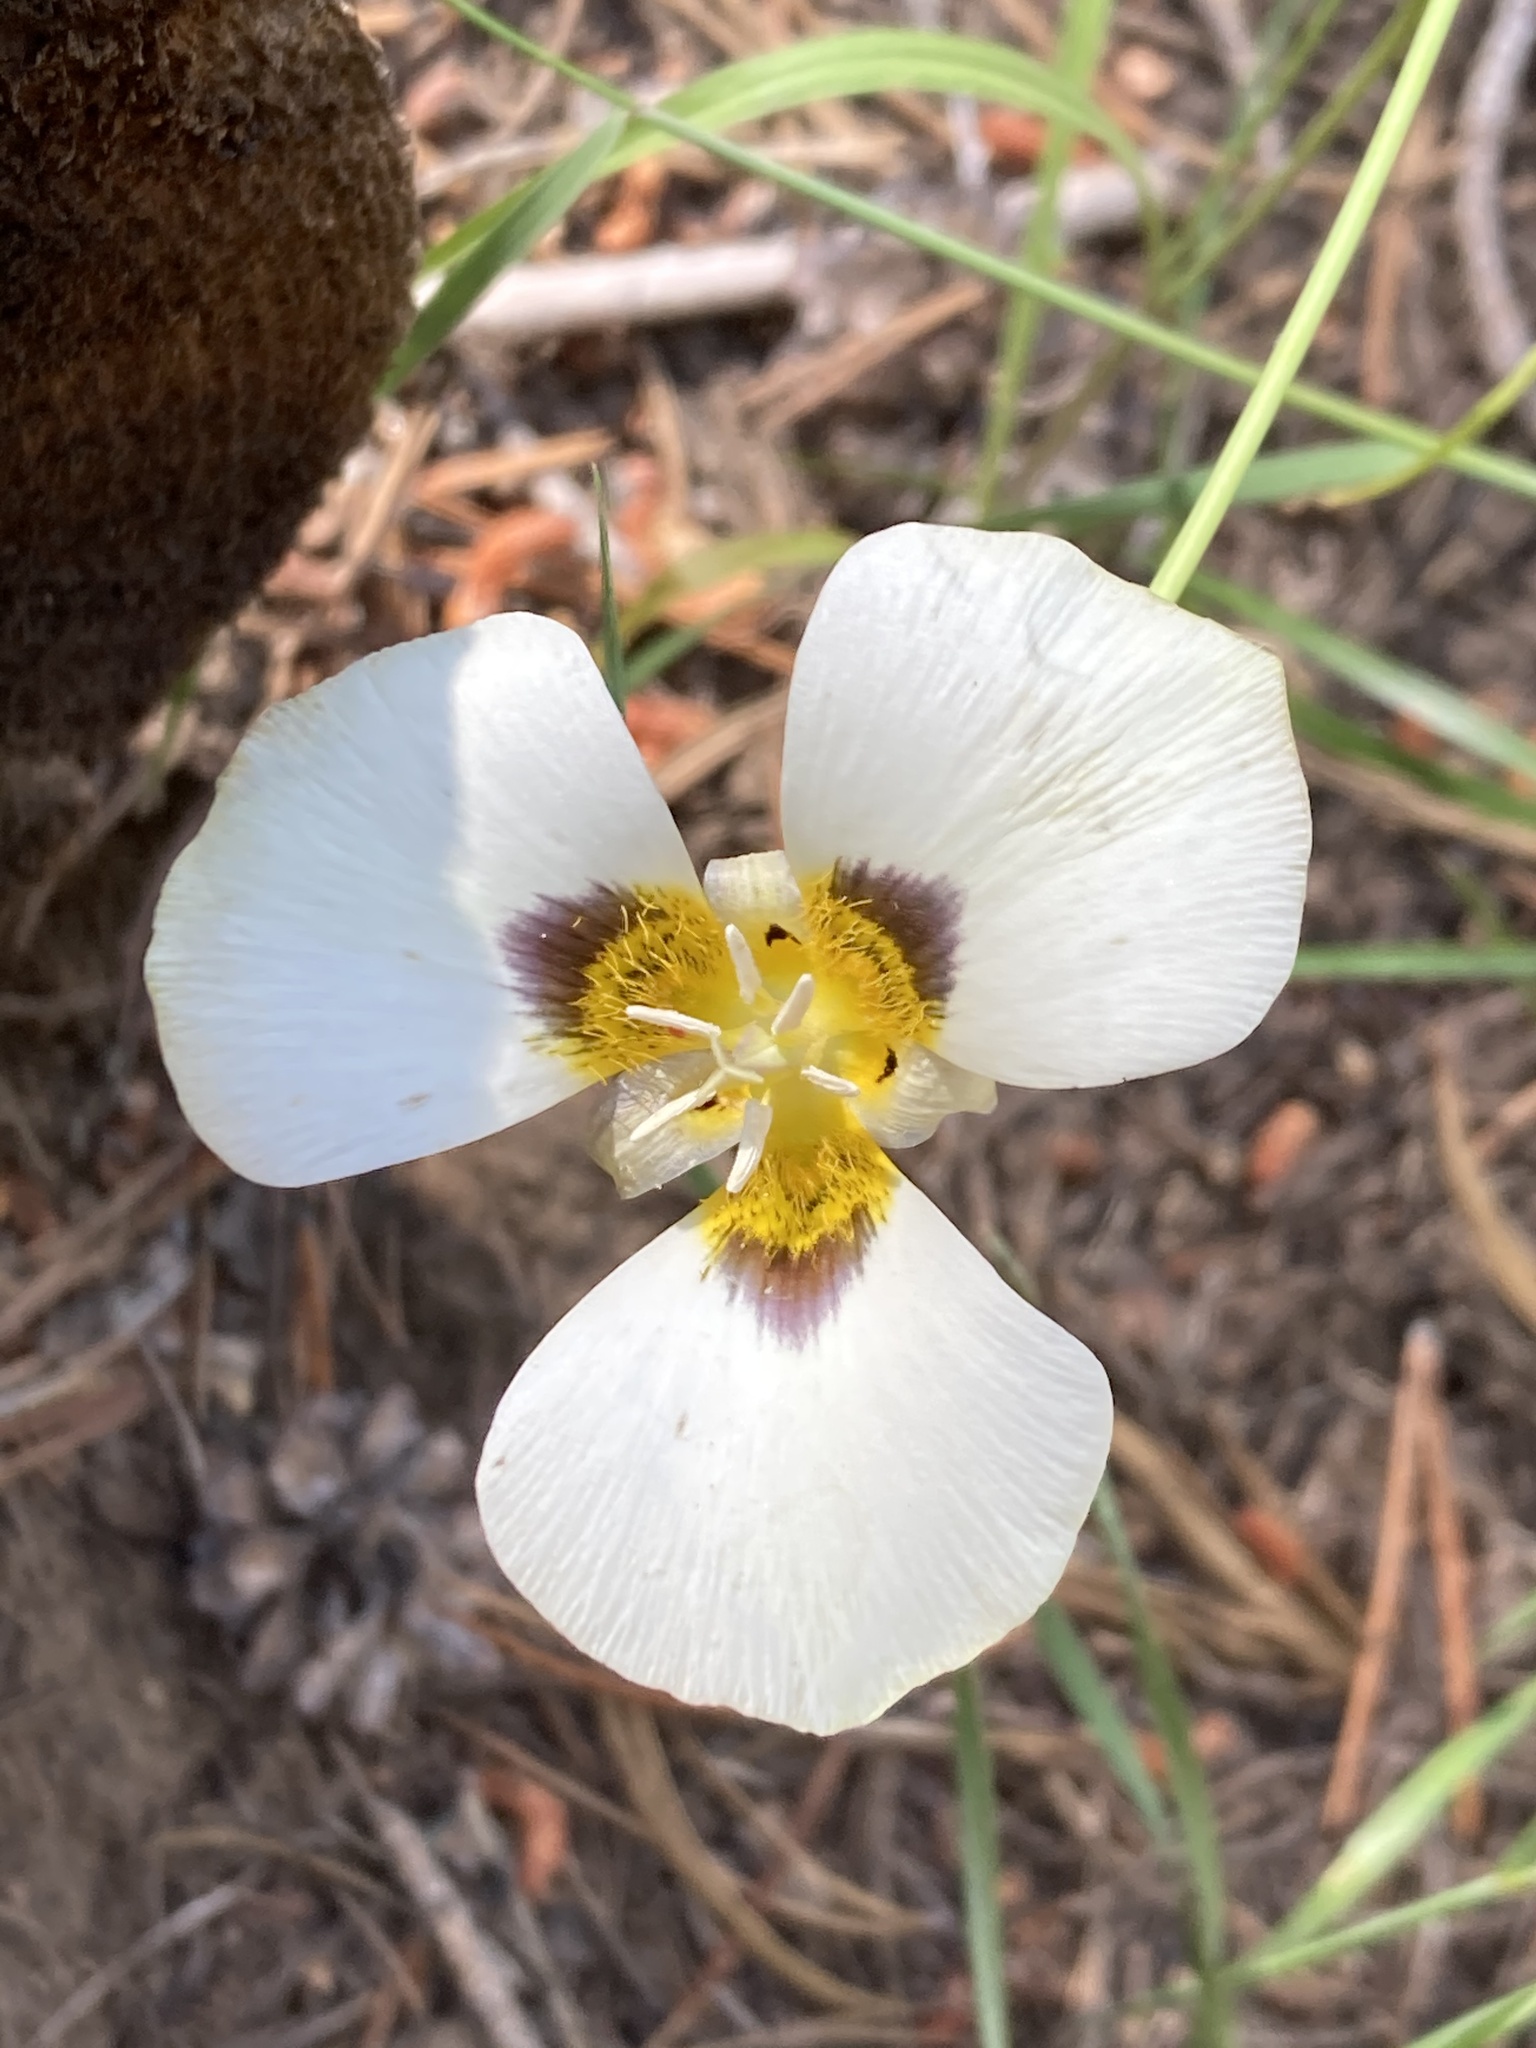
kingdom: Plantae
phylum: Tracheophyta
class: Liliopsida
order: Liliales
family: Liliaceae
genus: Calochortus
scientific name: Calochortus leichtlinii
